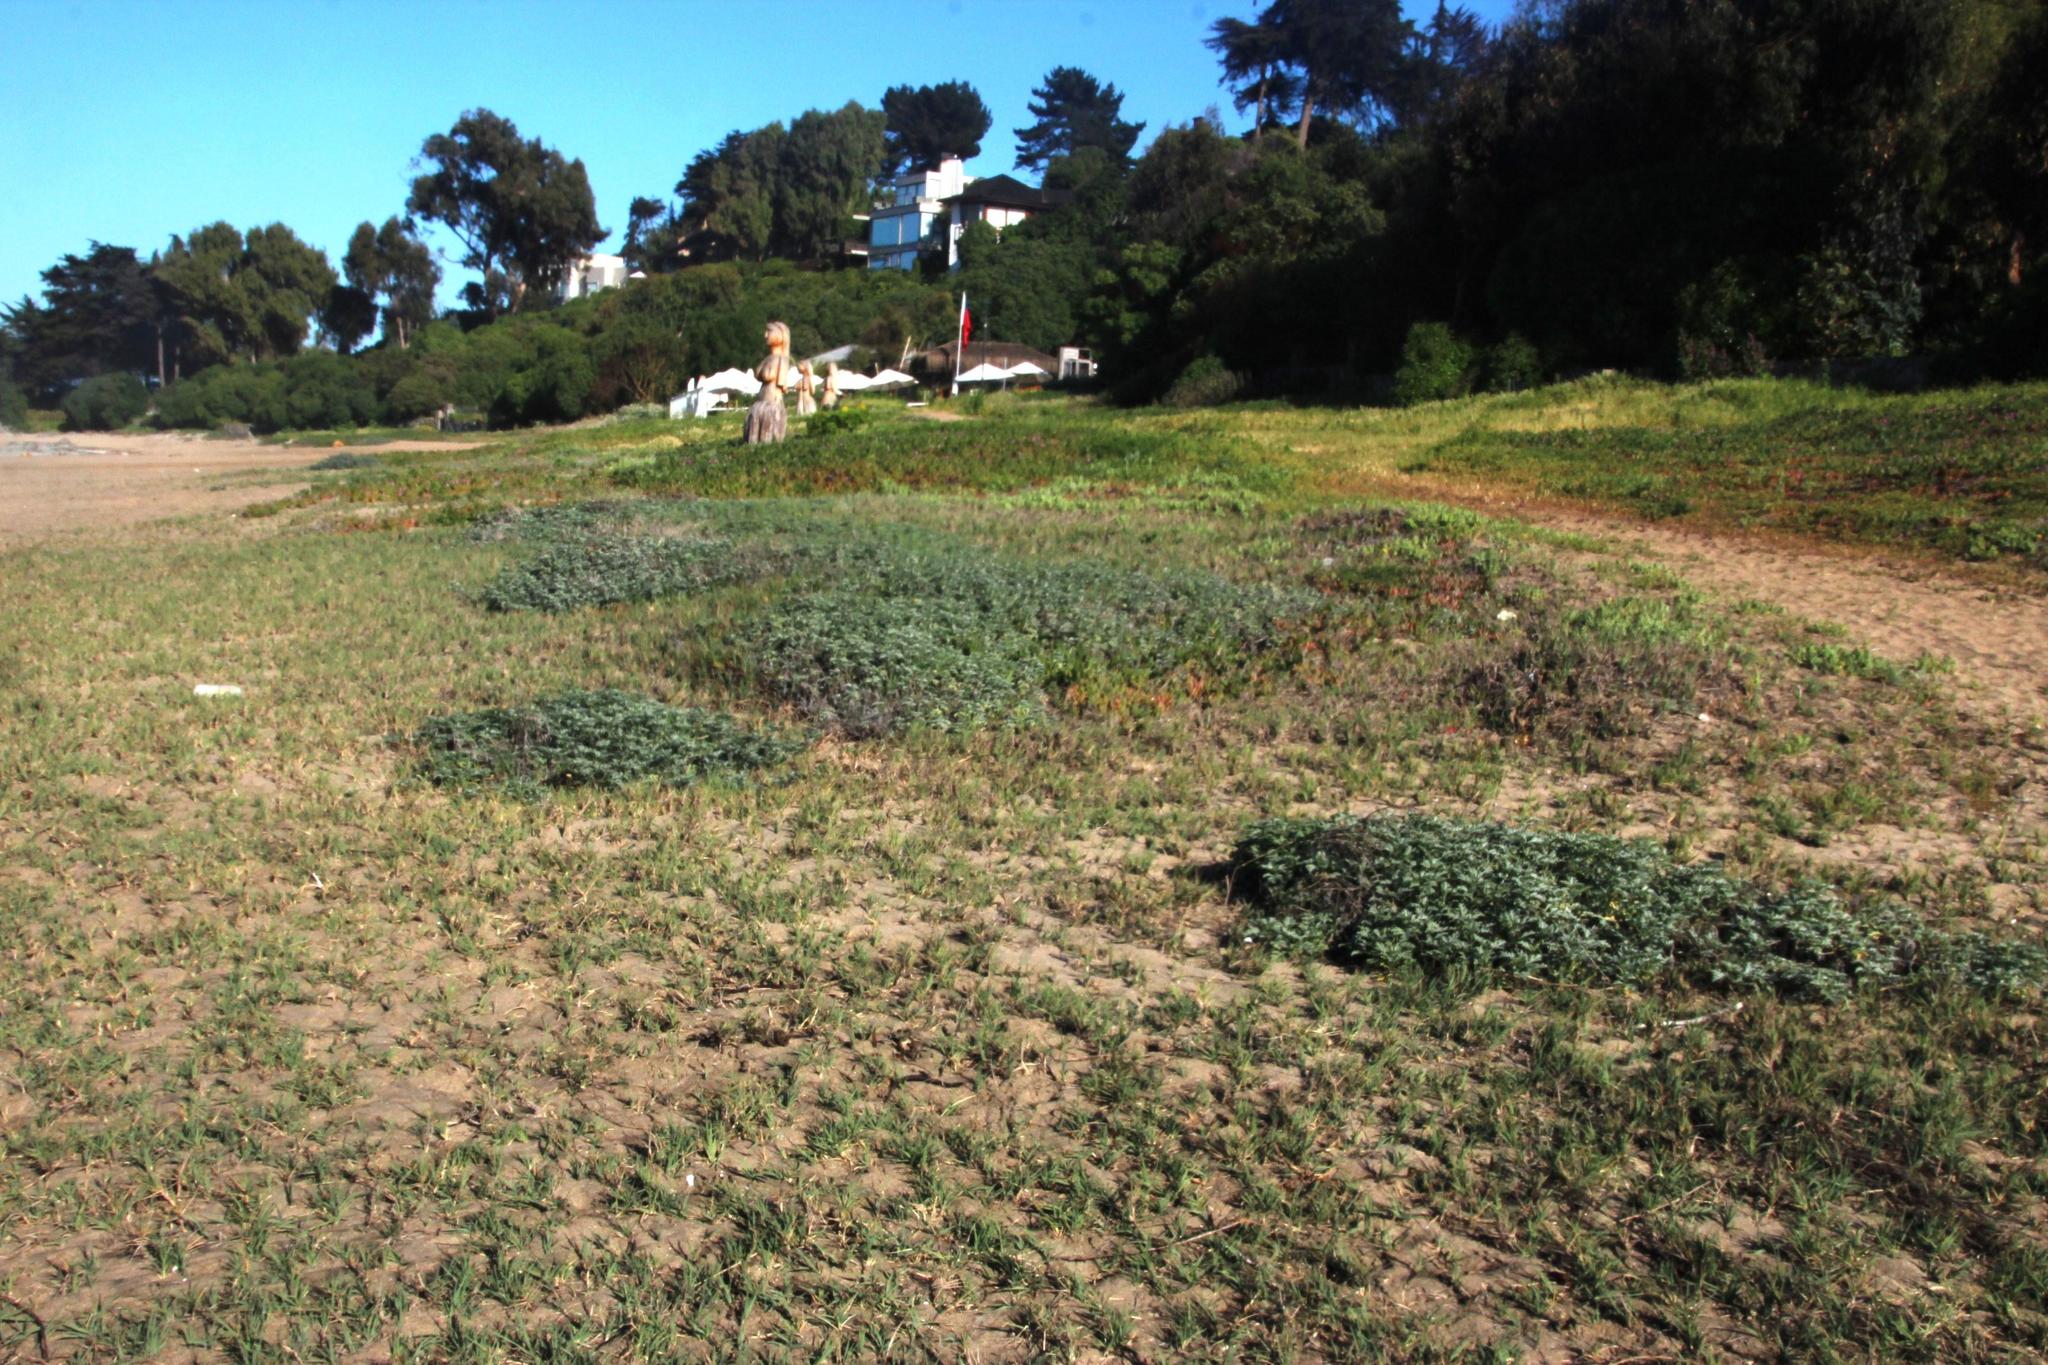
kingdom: Plantae
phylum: Tracheophyta
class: Magnoliopsida
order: Asterales
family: Asteraceae
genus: Ambrosia
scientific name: Ambrosia chamissonis
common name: Beachbur
